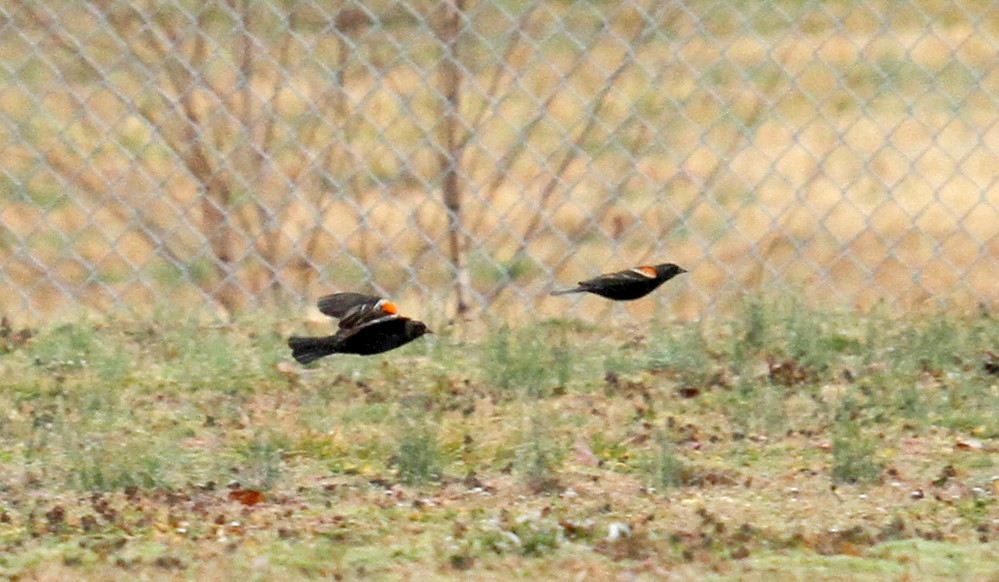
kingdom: Animalia
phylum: Chordata
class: Aves
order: Passeriformes
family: Icteridae
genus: Agelaius
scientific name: Agelaius phoeniceus
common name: Red-winged blackbird
